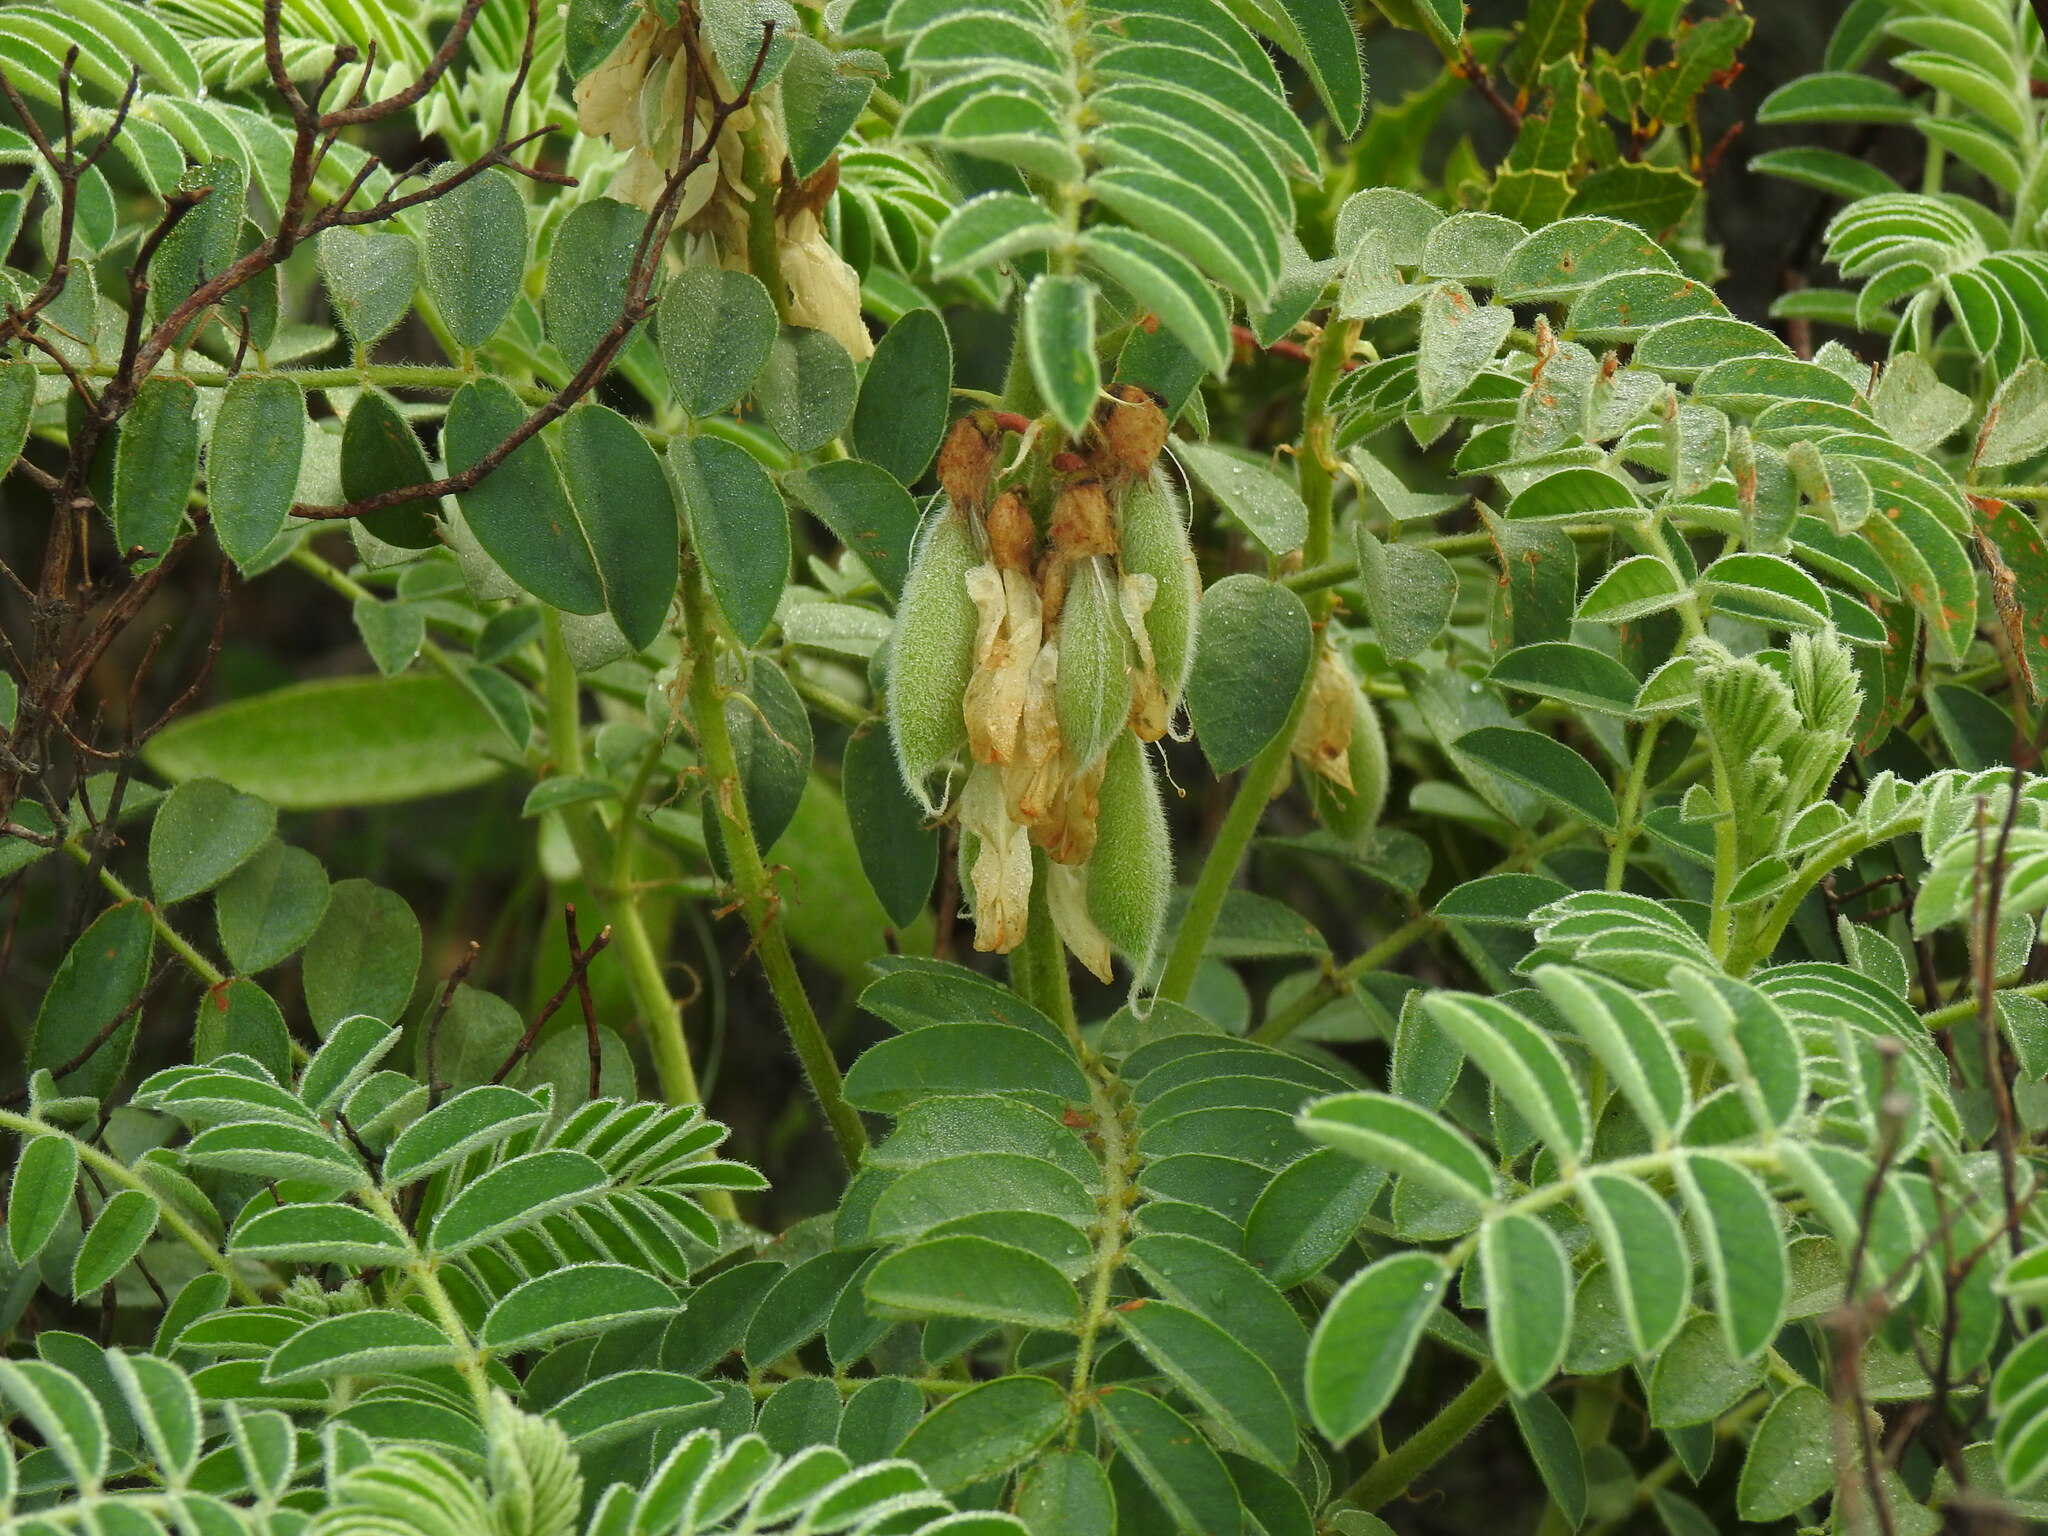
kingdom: Plantae
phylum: Tracheophyta
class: Magnoliopsida
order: Fabales
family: Fabaceae
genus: Erophaca
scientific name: Erophaca baetica
